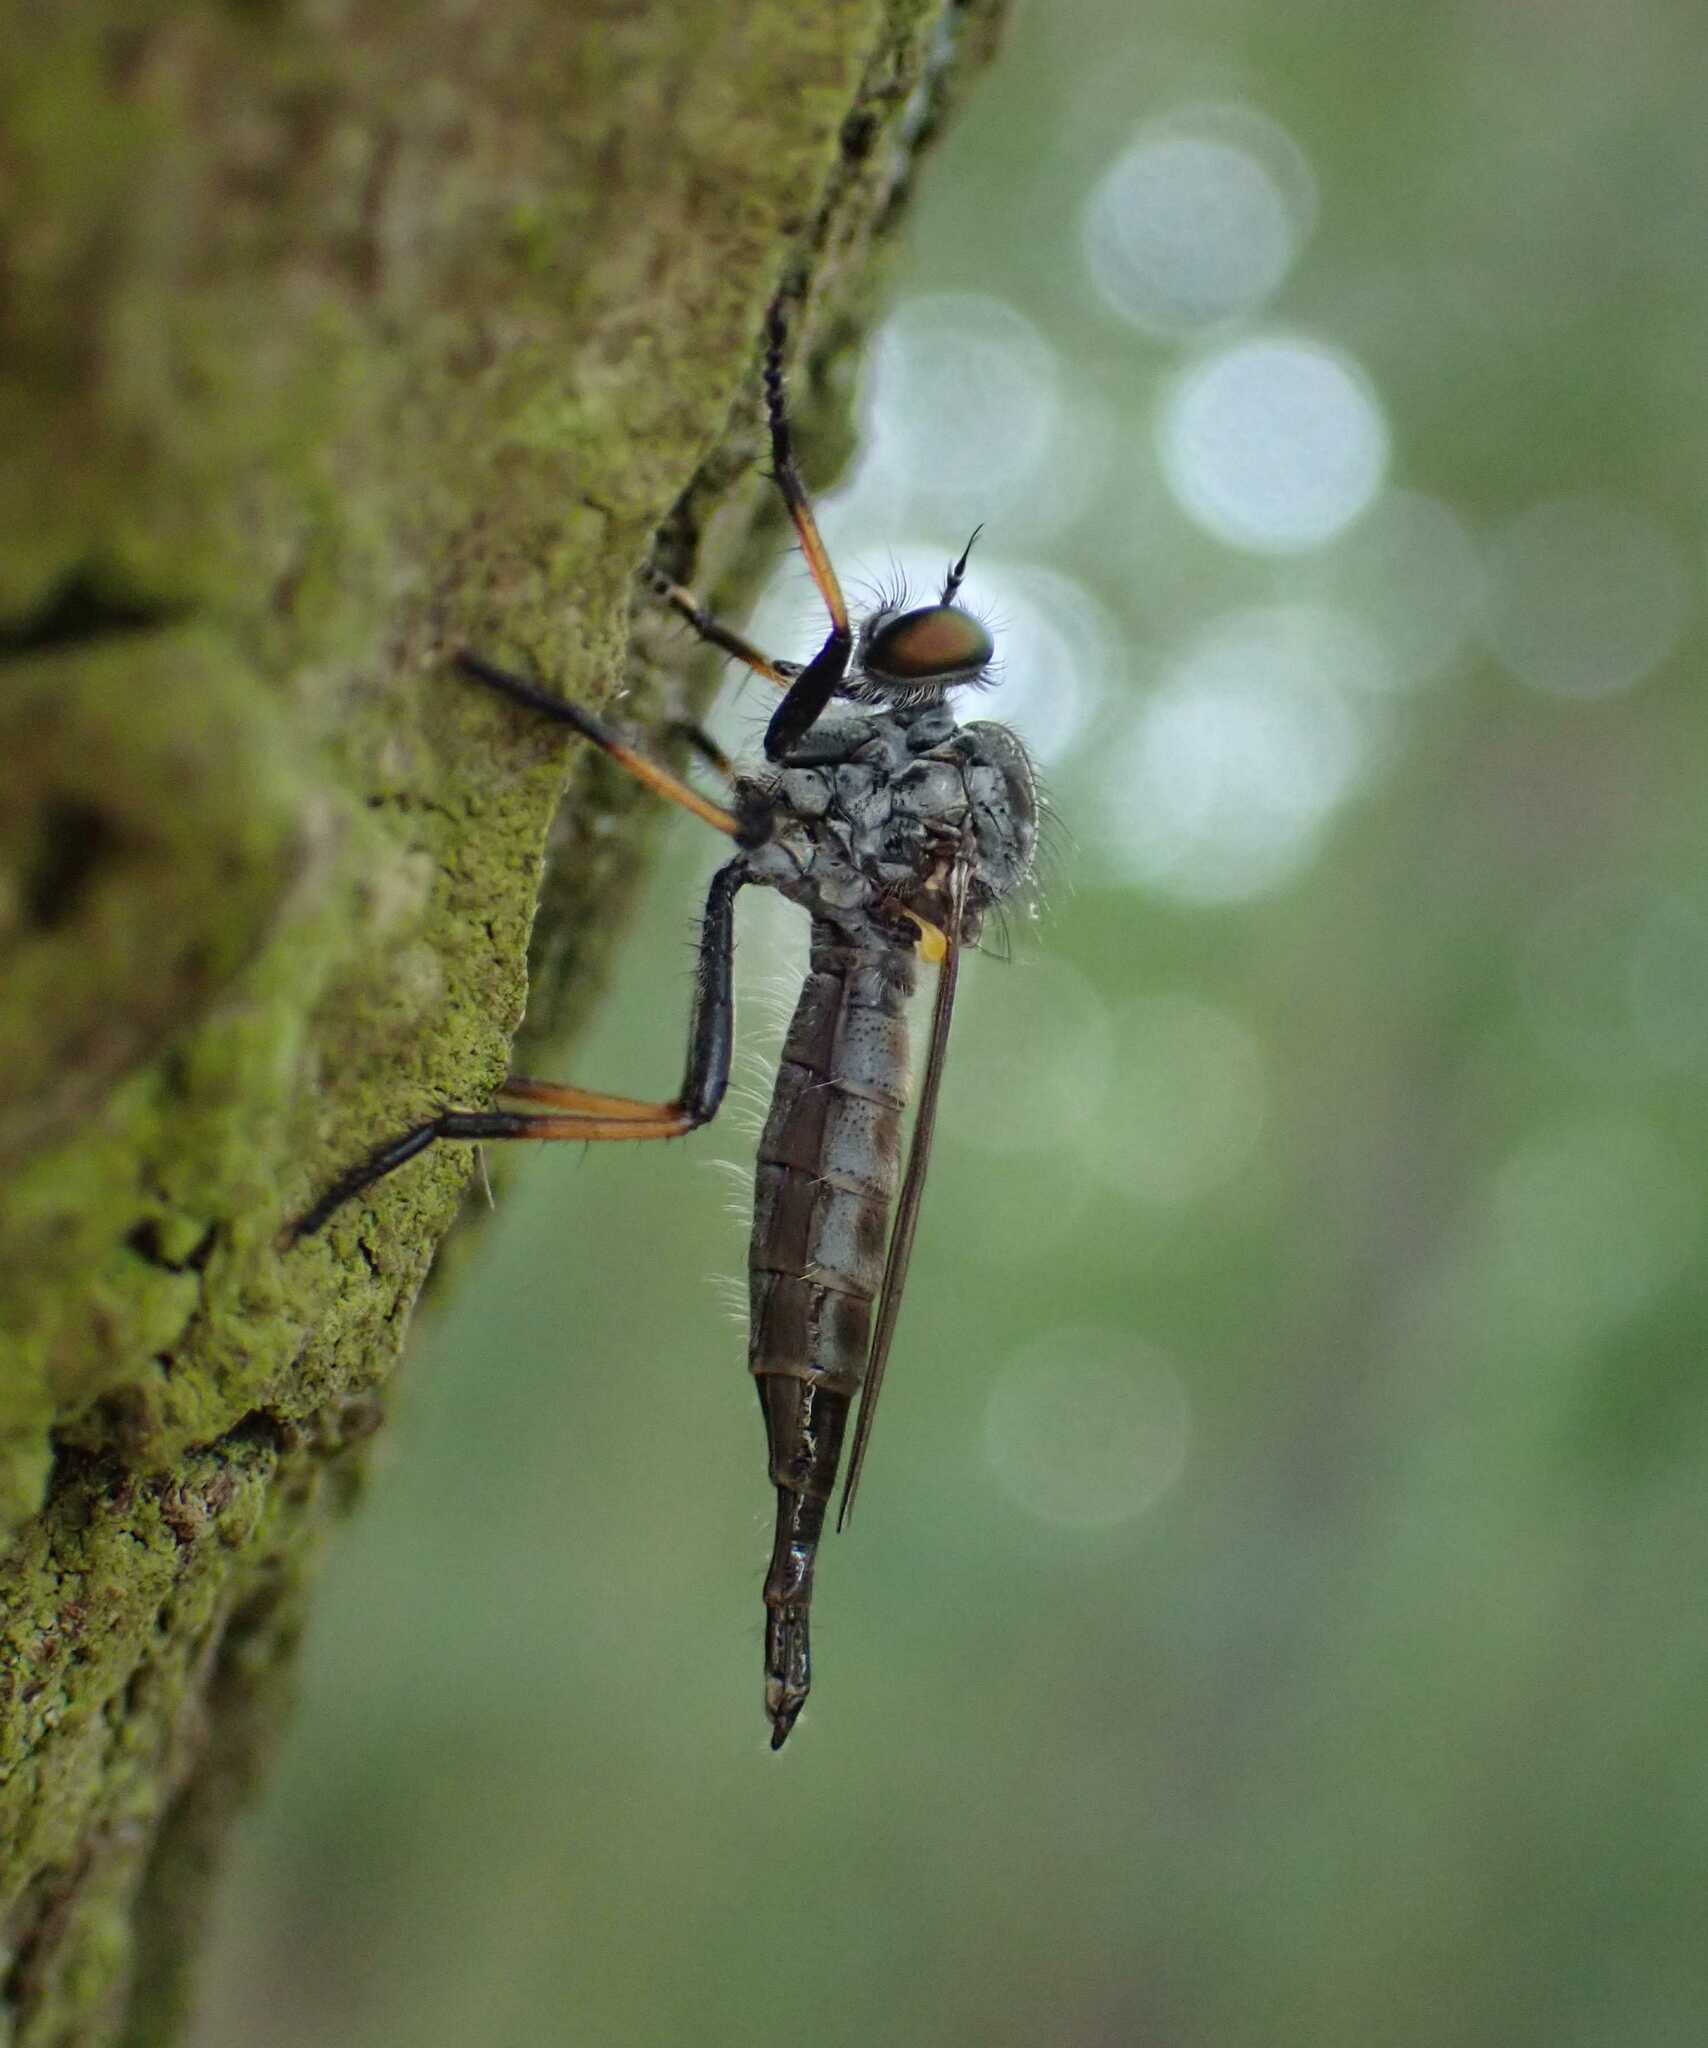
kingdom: Animalia
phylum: Arthropoda
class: Insecta
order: Diptera
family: Asilidae
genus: Neoitamus
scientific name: Neoitamus
